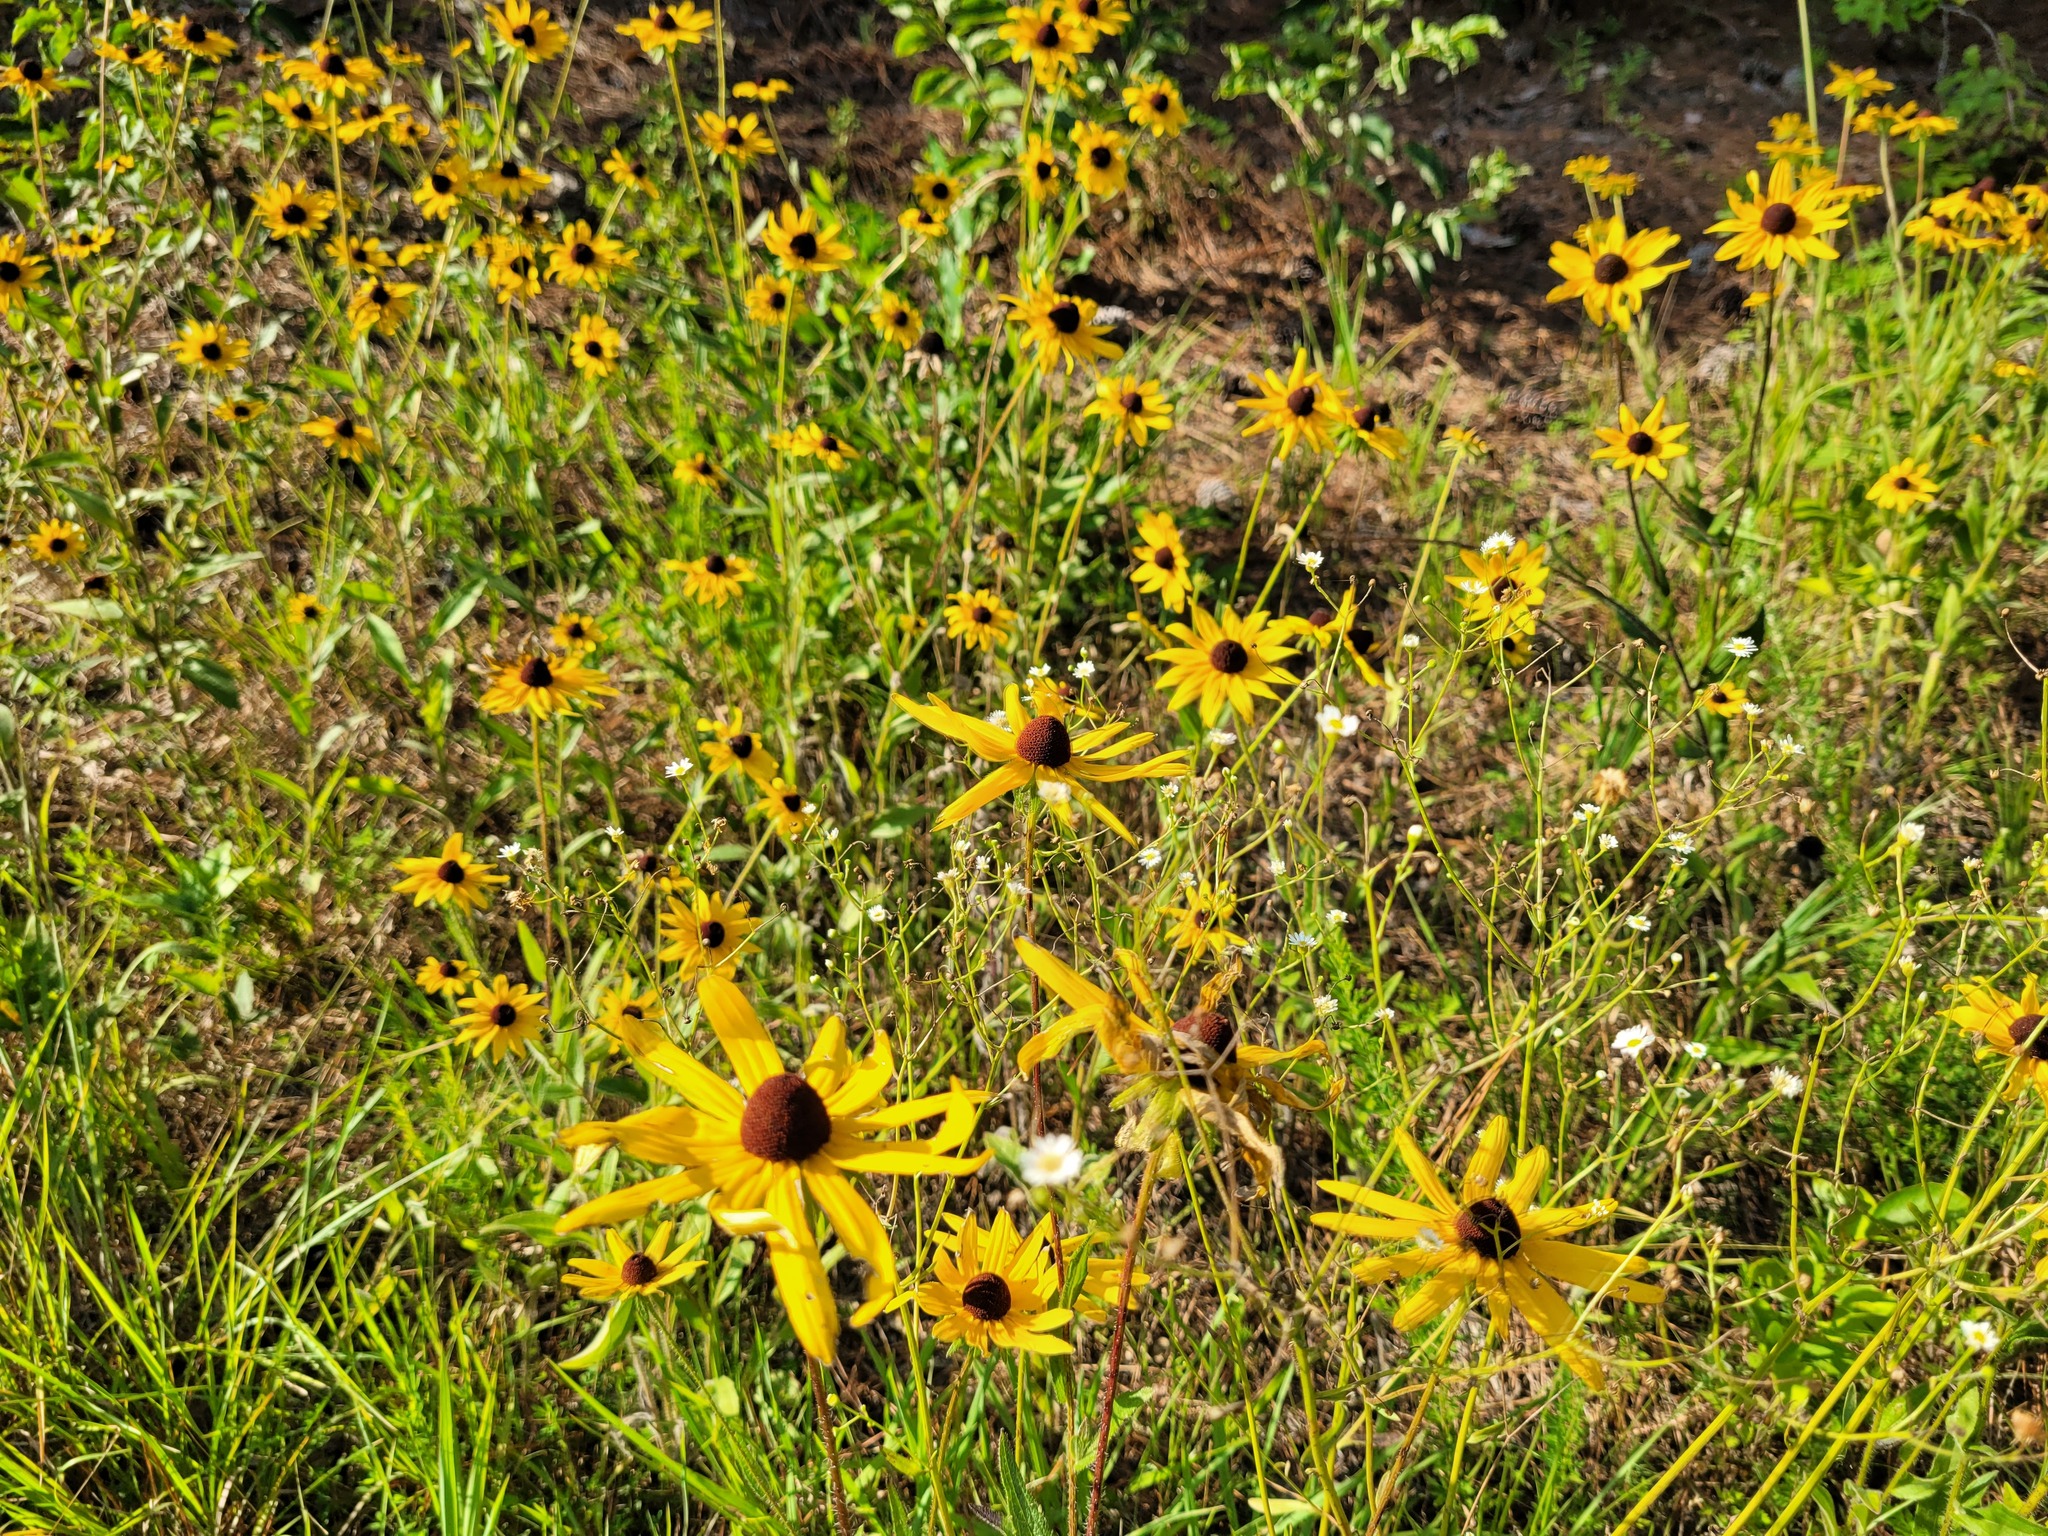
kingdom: Plantae
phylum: Tracheophyta
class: Magnoliopsida
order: Asterales
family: Asteraceae
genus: Rudbeckia
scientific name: Rudbeckia hirta
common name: Black-eyed-susan
